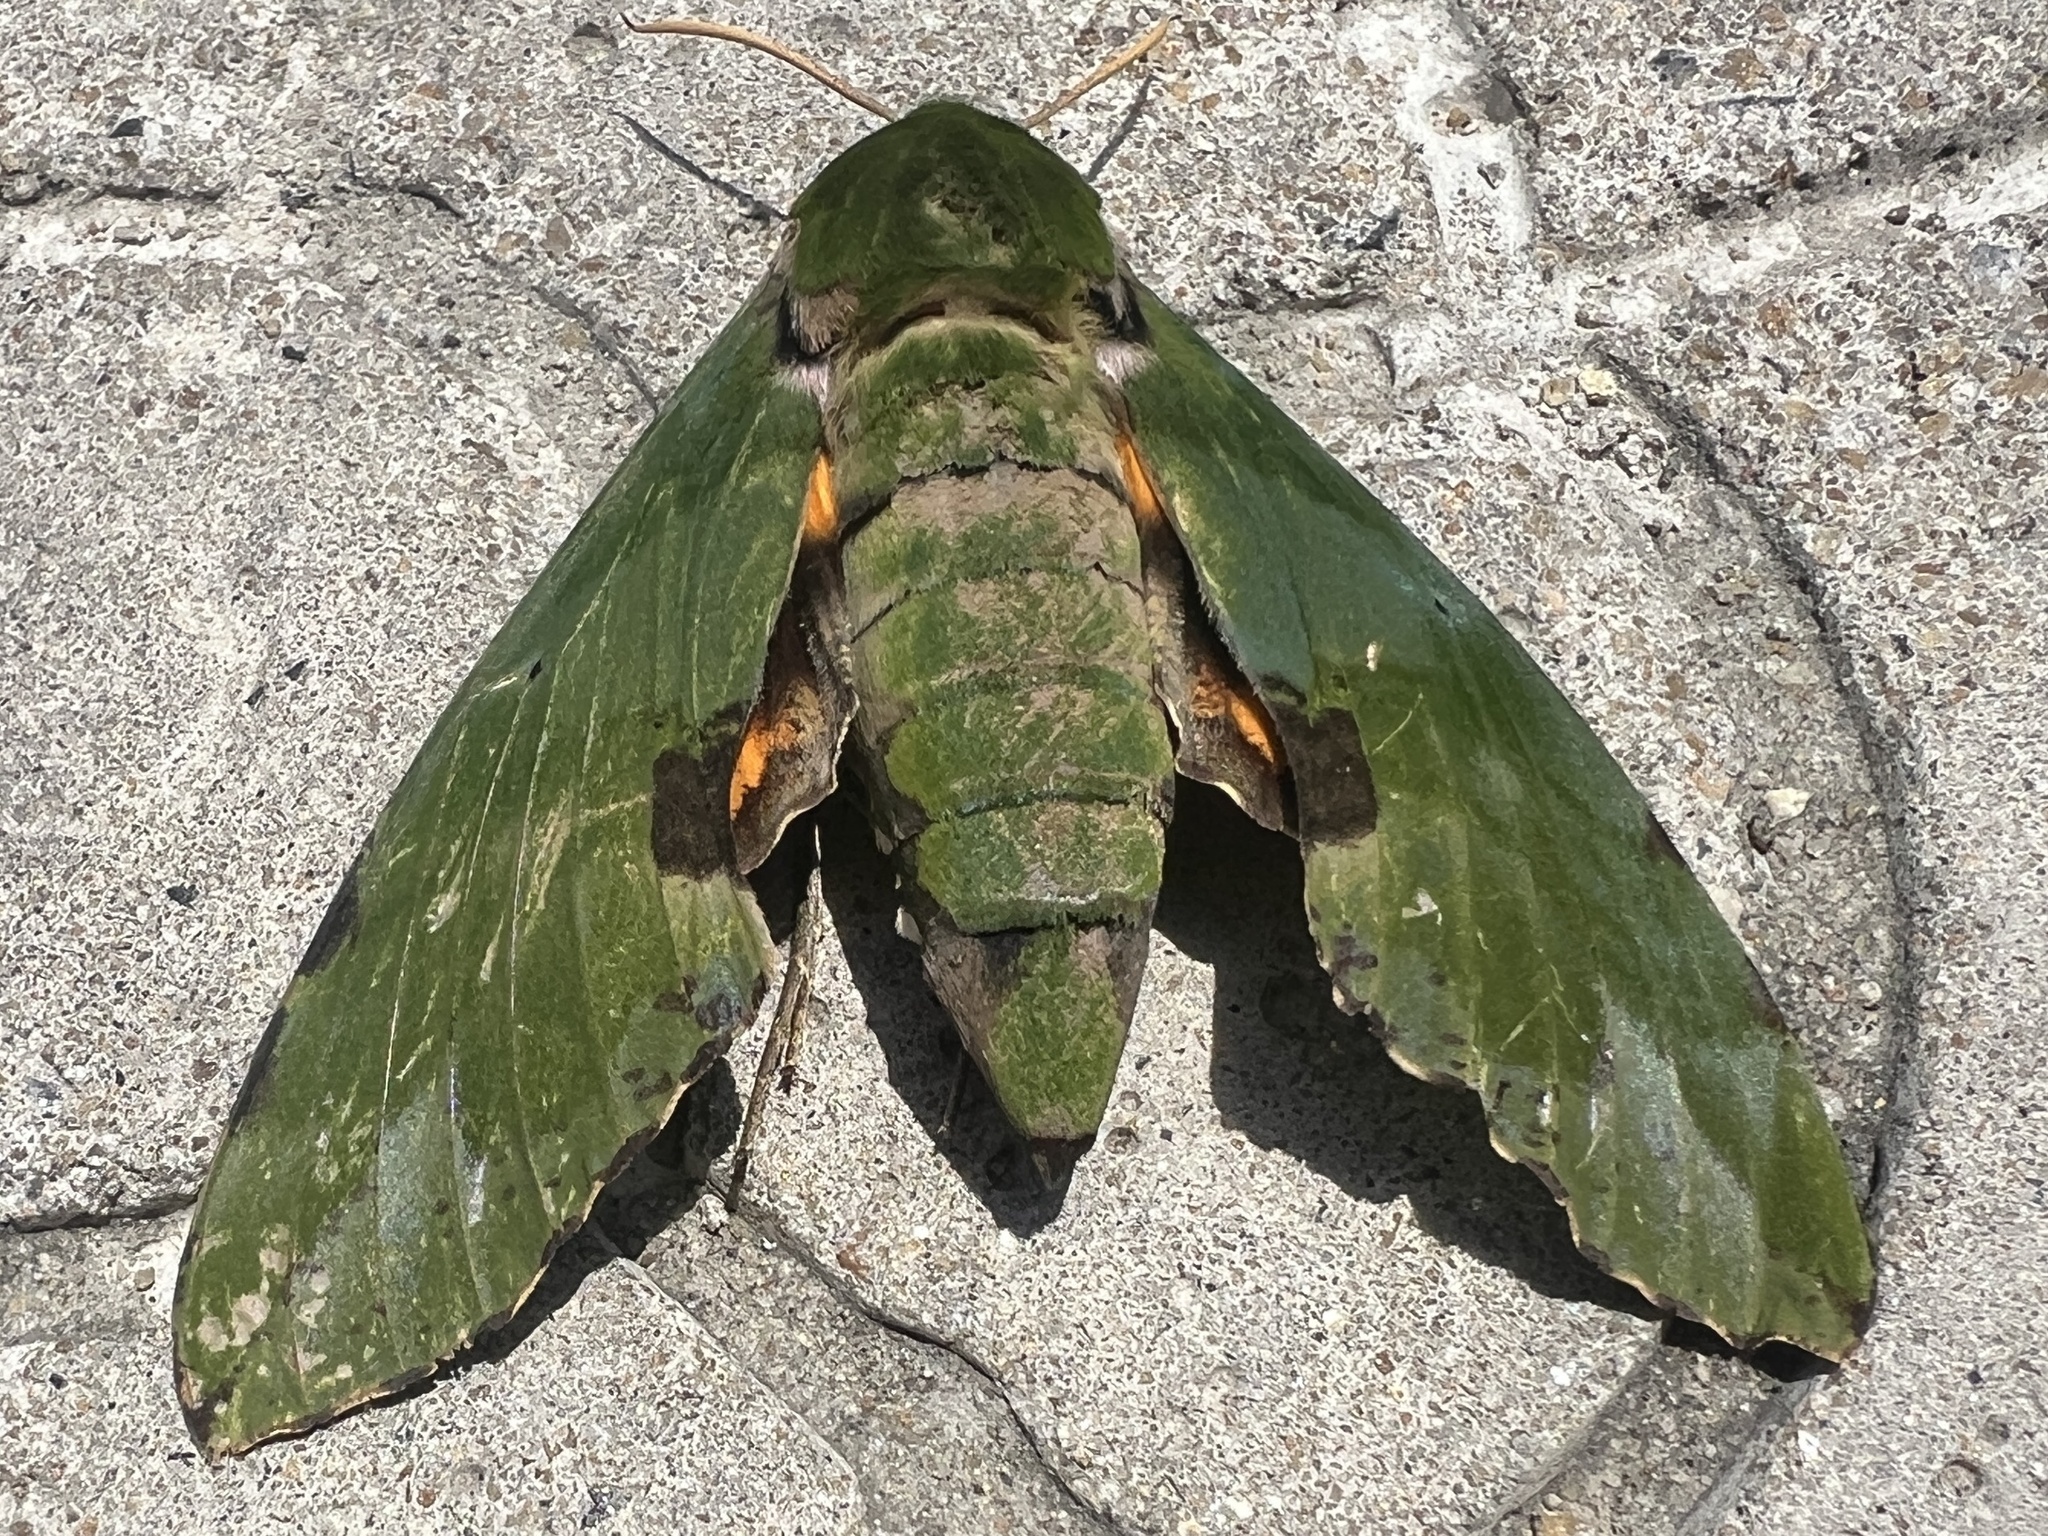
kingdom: Animalia
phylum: Arthropoda
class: Insecta
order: Lepidoptera
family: Sphingidae
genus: Euchloron
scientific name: Euchloron megaera
